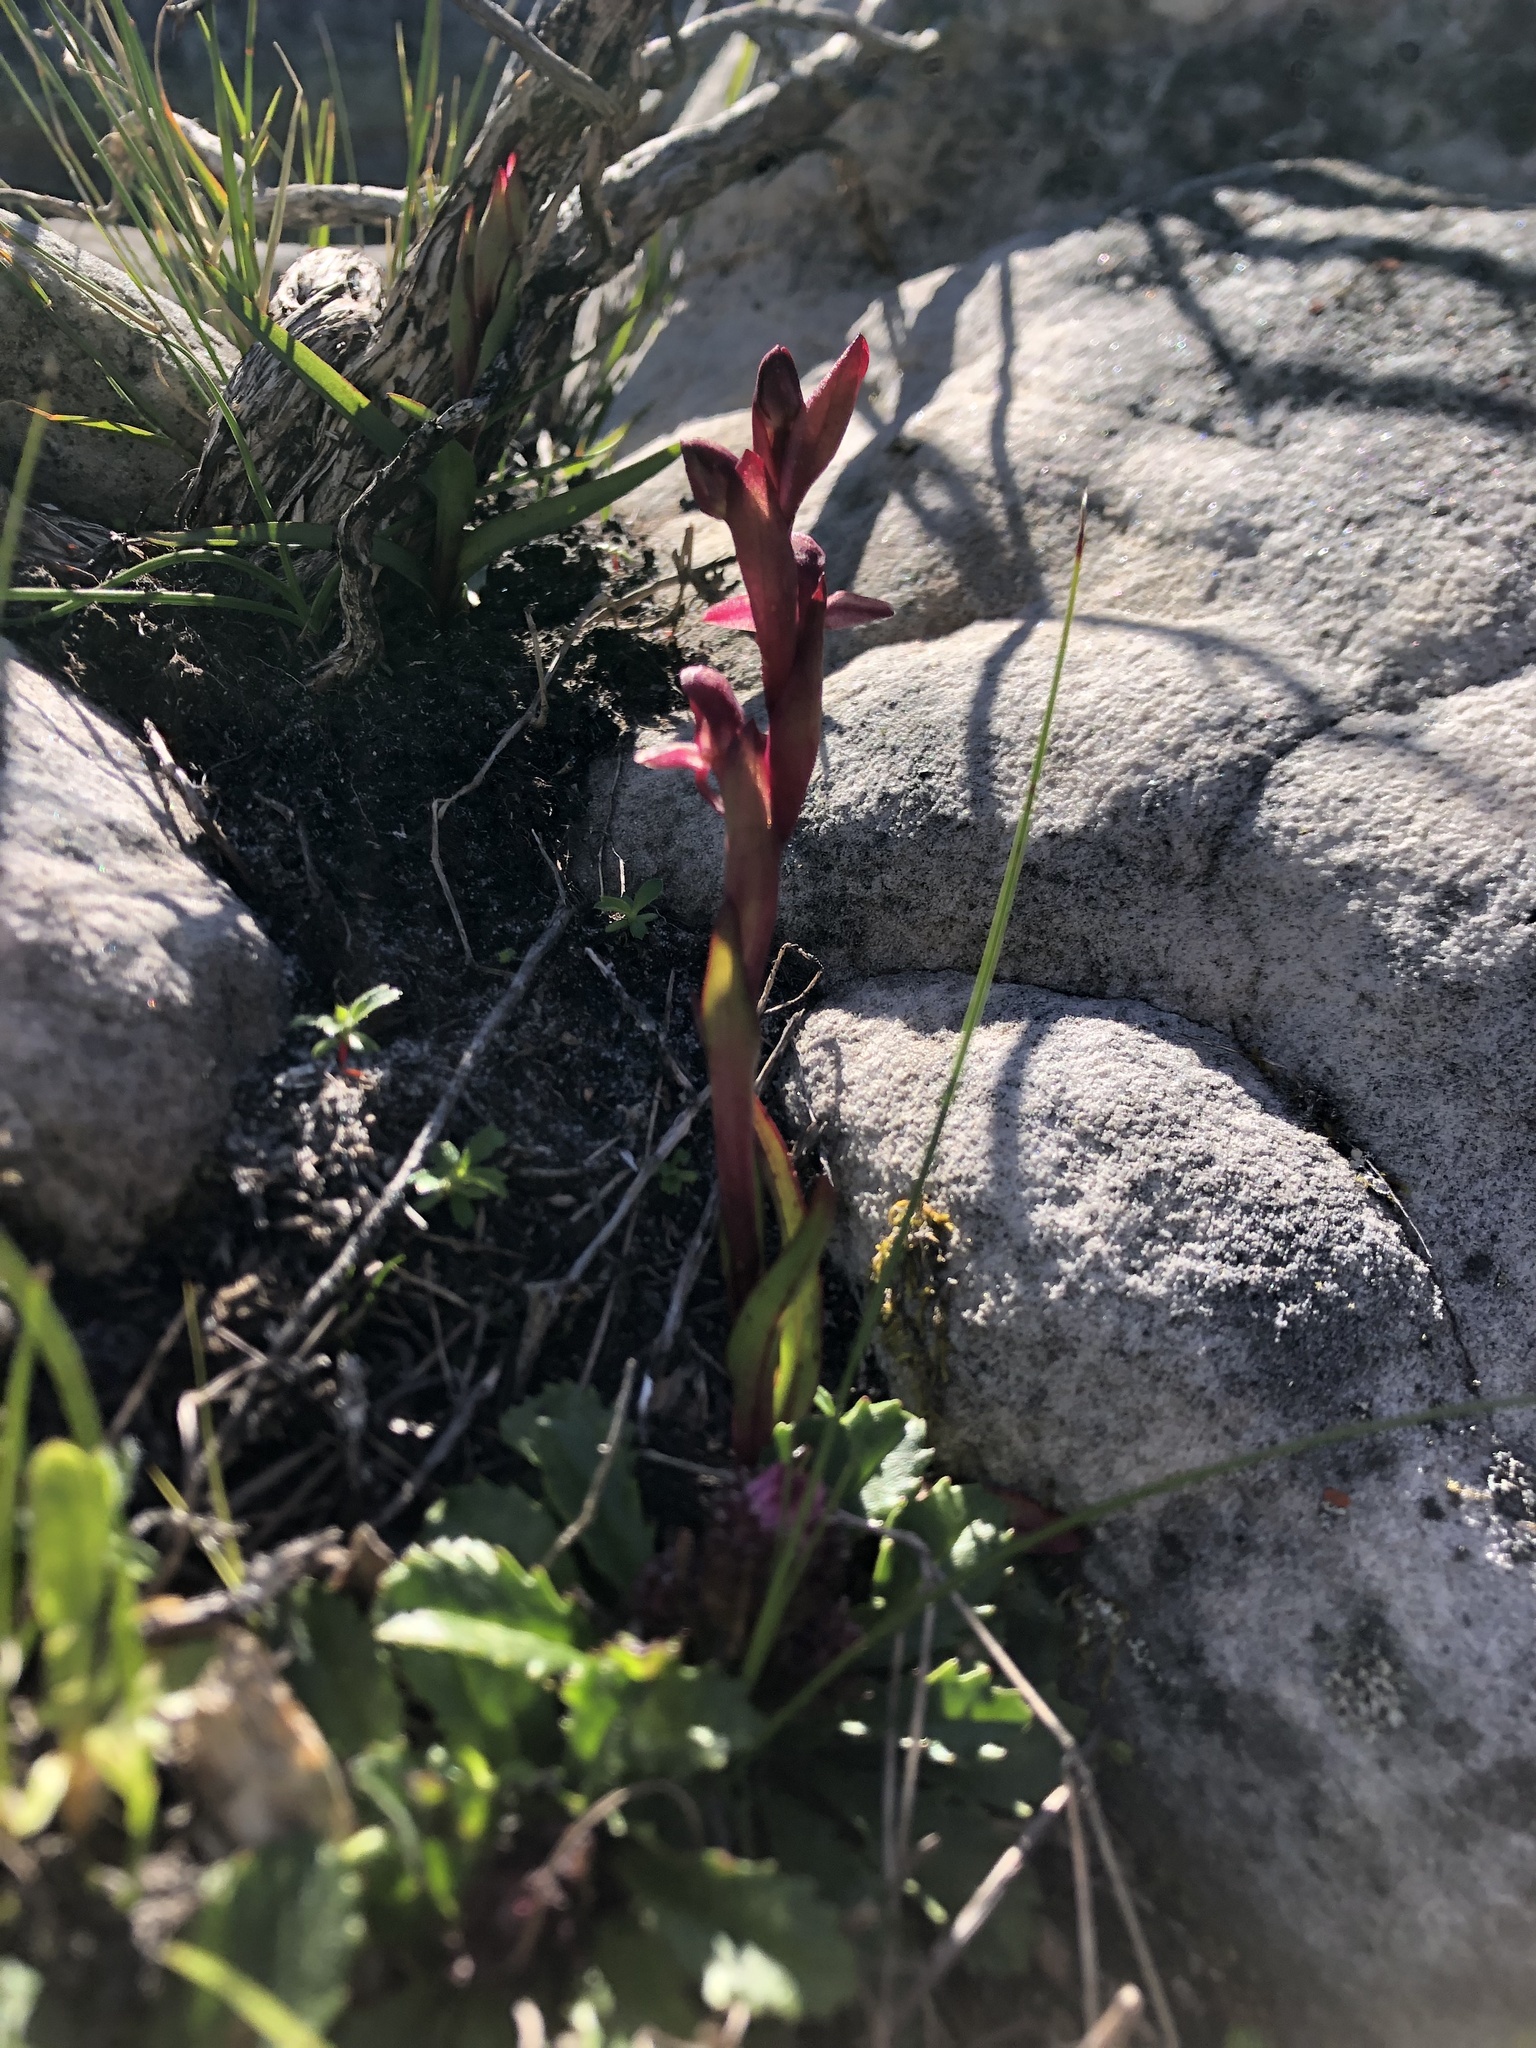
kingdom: Plantae
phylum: Tracheophyta
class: Liliopsida
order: Asparagales
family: Orchidaceae
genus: Disa
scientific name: Disa ophrydea
